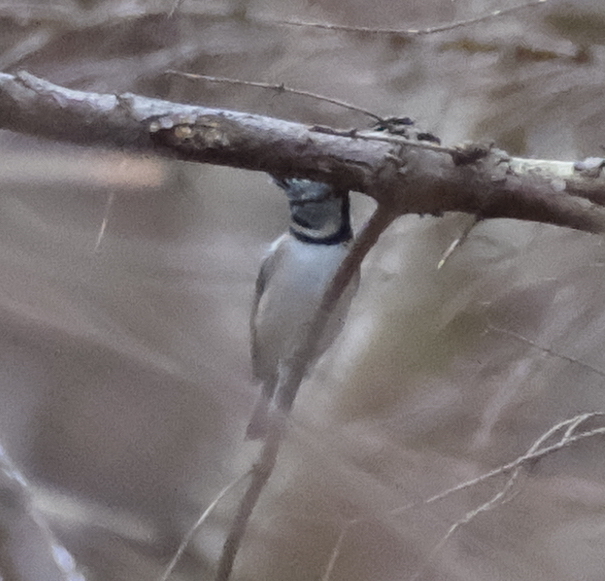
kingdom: Animalia
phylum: Chordata
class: Aves
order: Passeriformes
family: Paridae
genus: Lophophanes
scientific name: Lophophanes cristatus
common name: European crested tit
